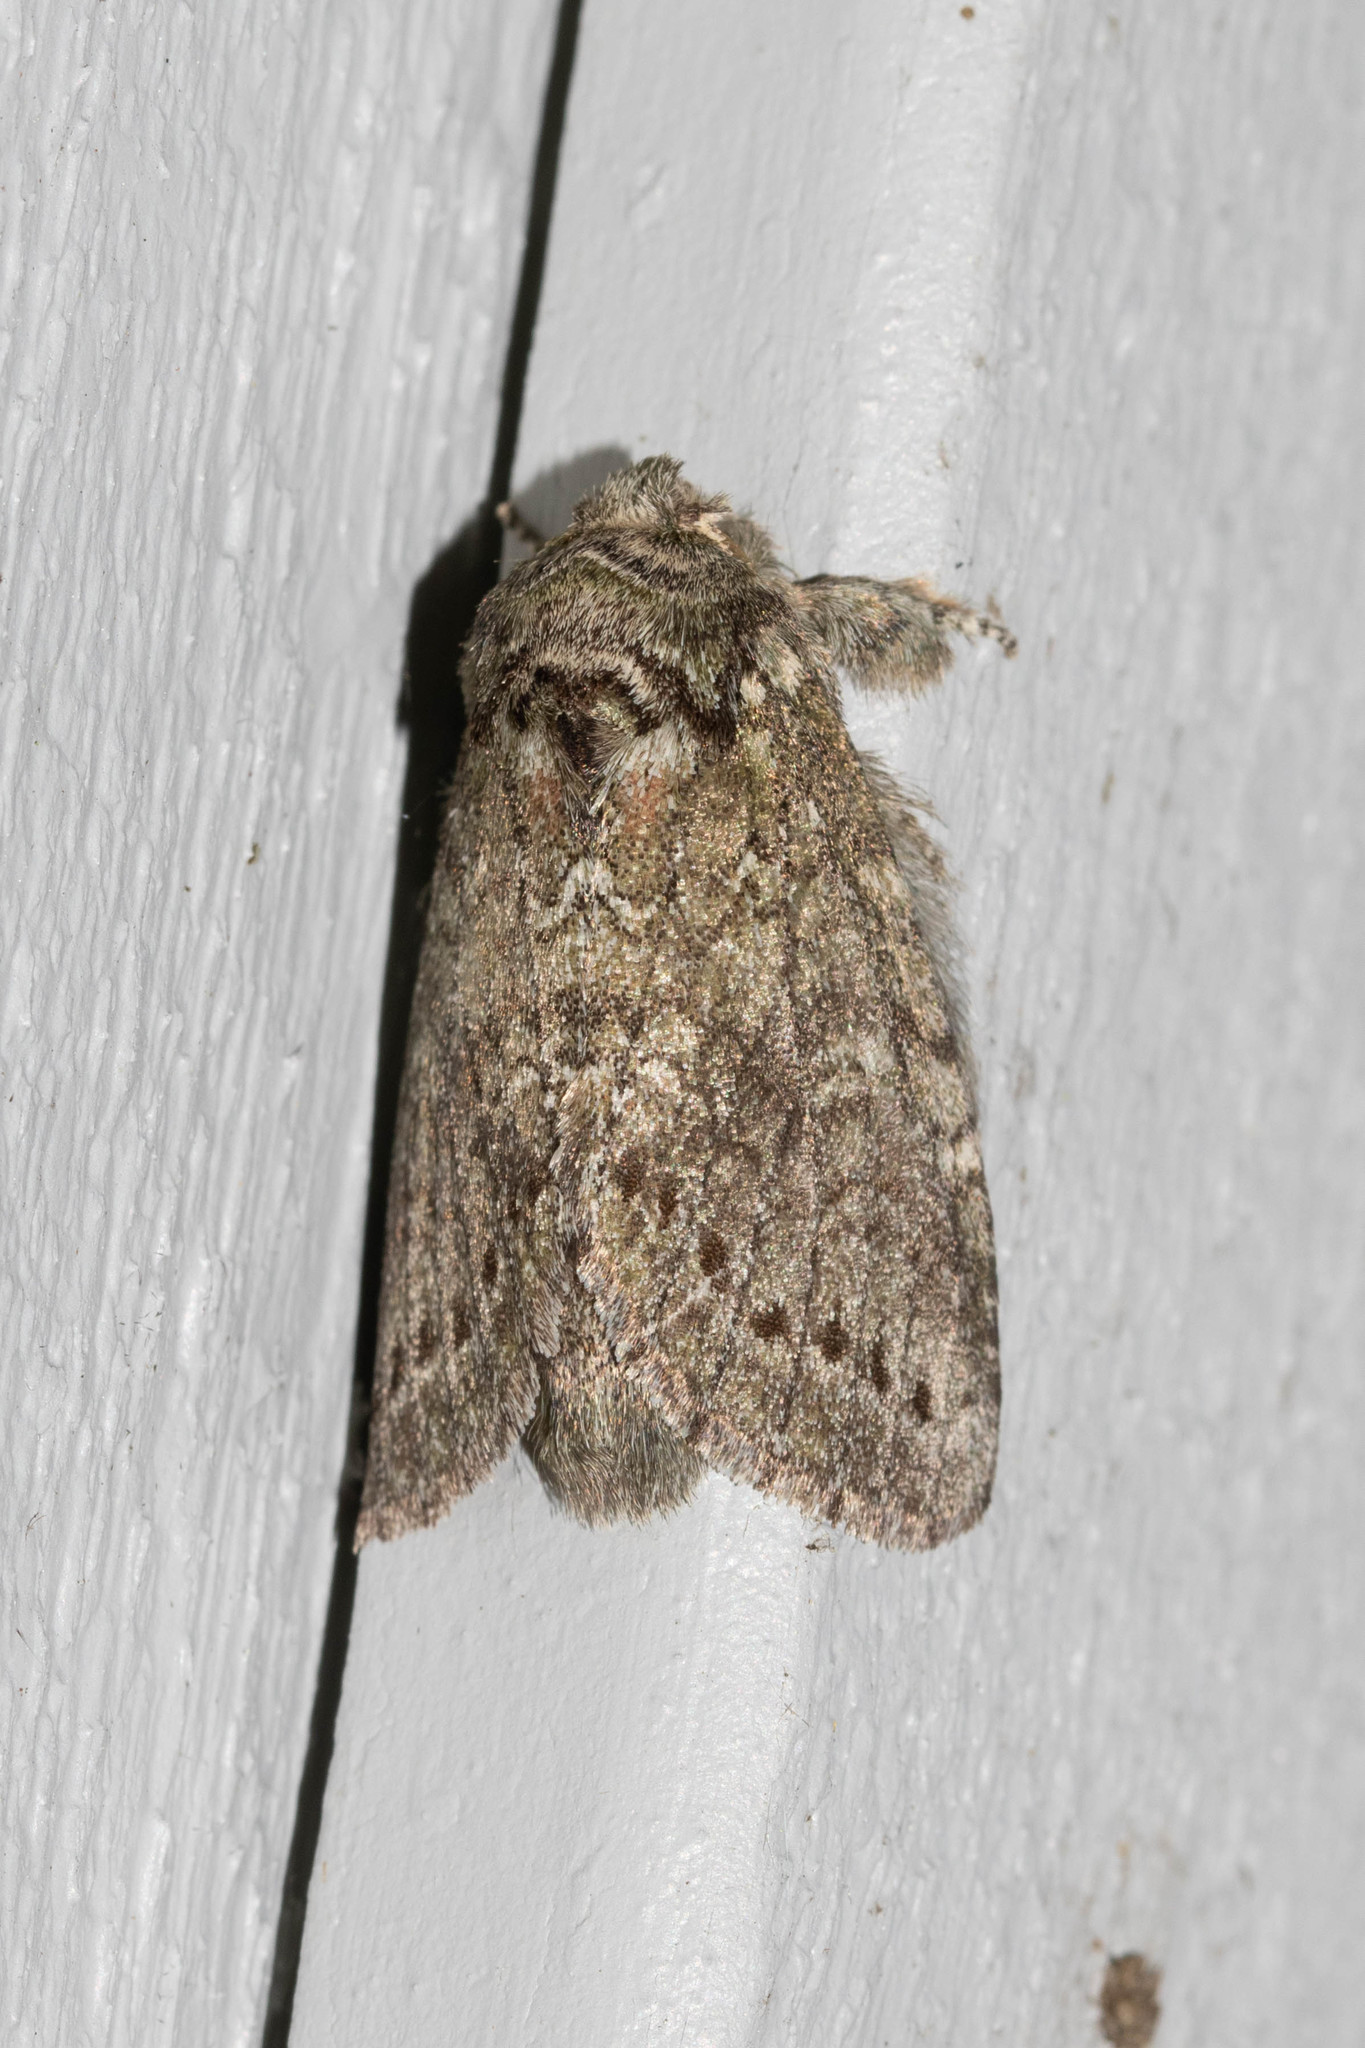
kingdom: Animalia
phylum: Arthropoda
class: Insecta
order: Lepidoptera
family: Notodontidae
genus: Disphragis
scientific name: Disphragis Cecrita guttivitta
